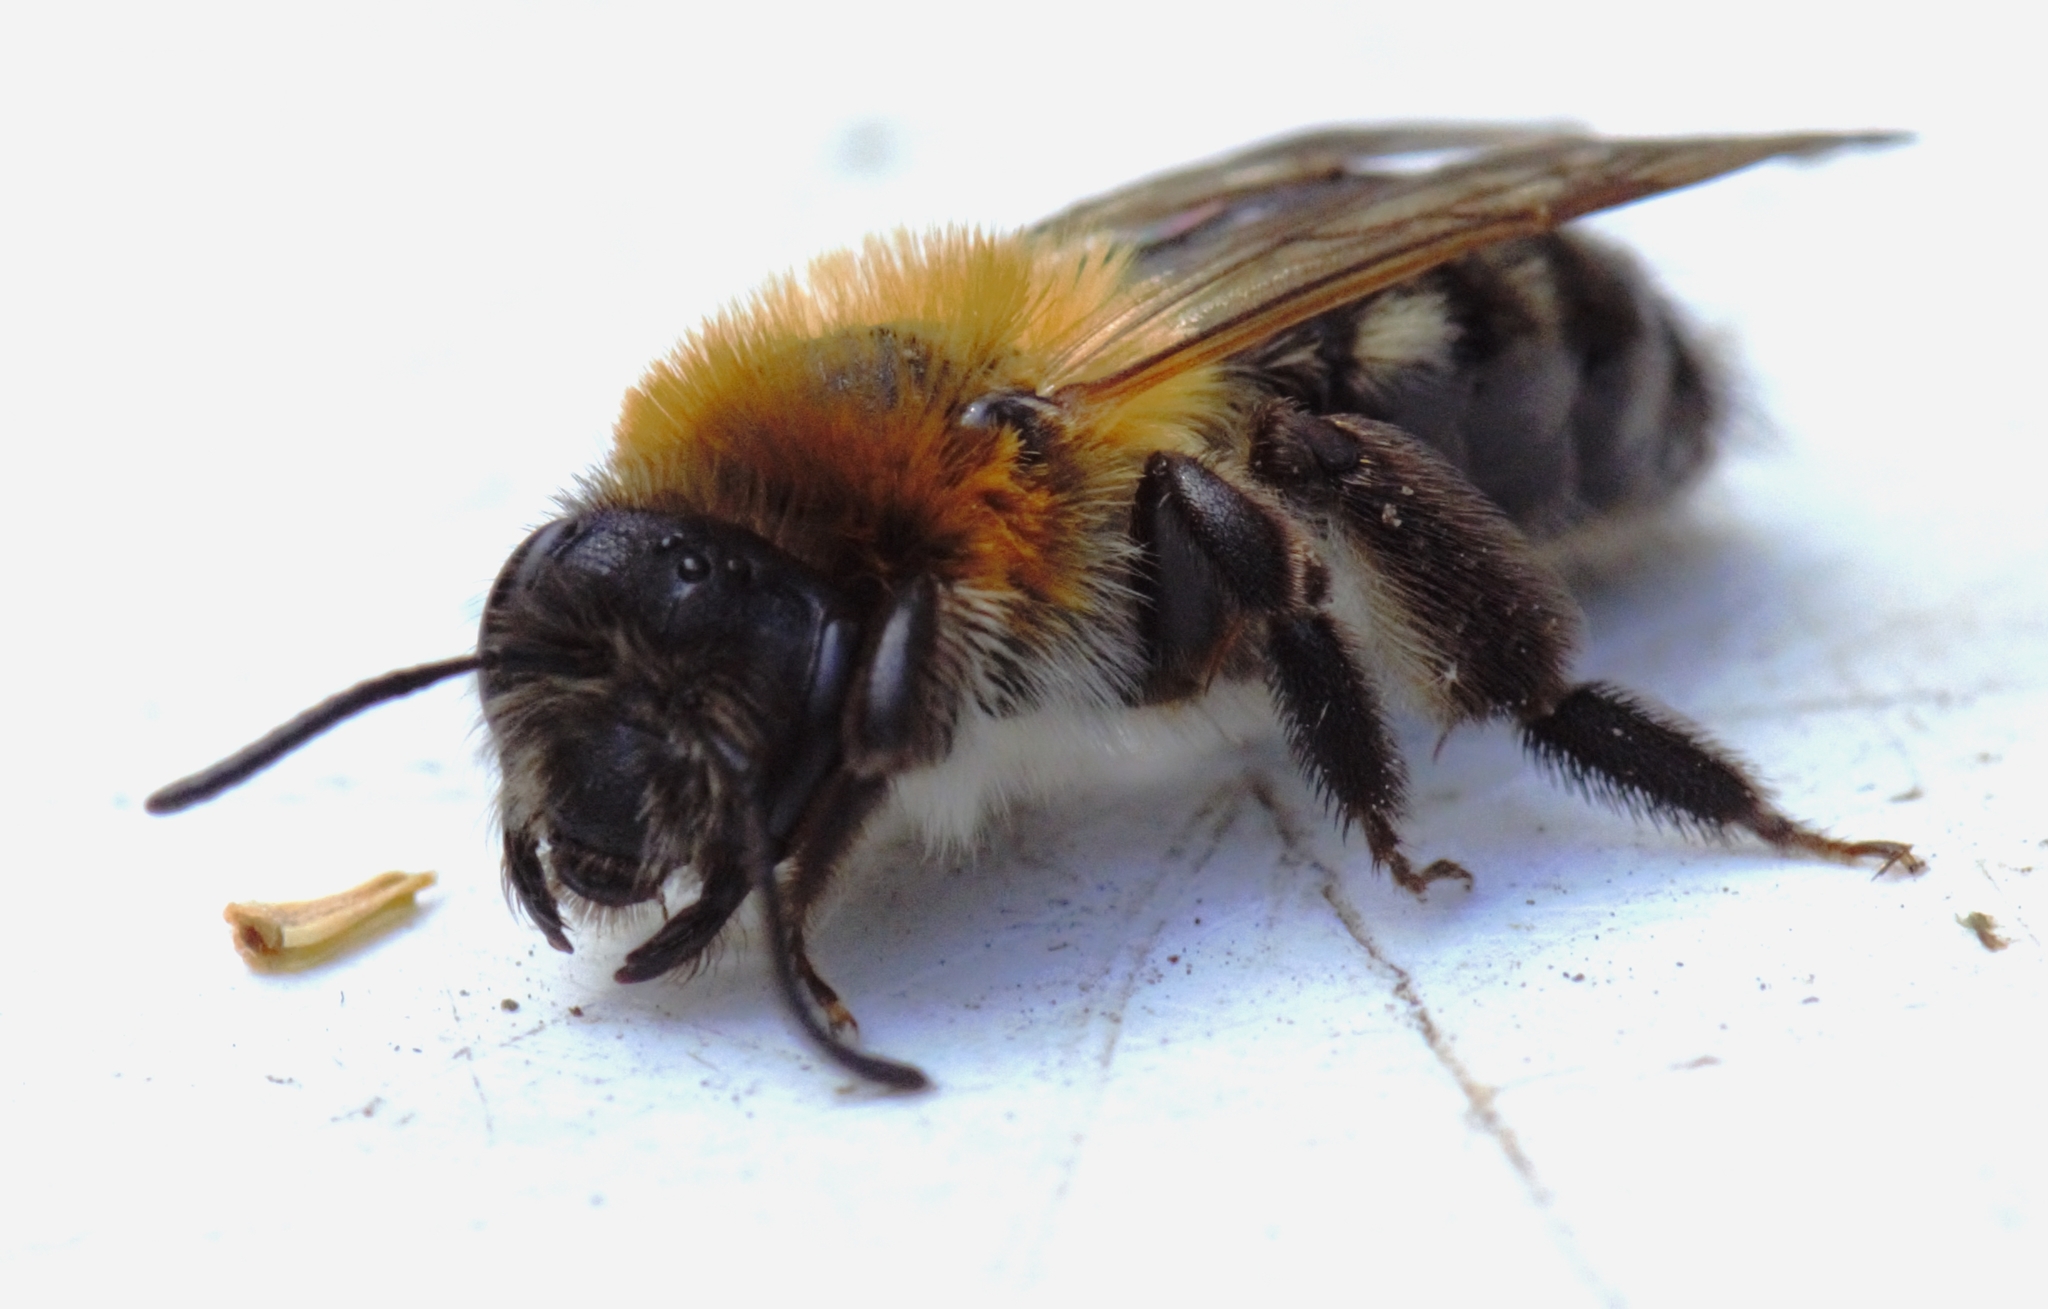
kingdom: Animalia
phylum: Arthropoda
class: Insecta
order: Hymenoptera
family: Andrenidae
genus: Andrena
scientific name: Andrena nitida
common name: Grey-patched mining bee
